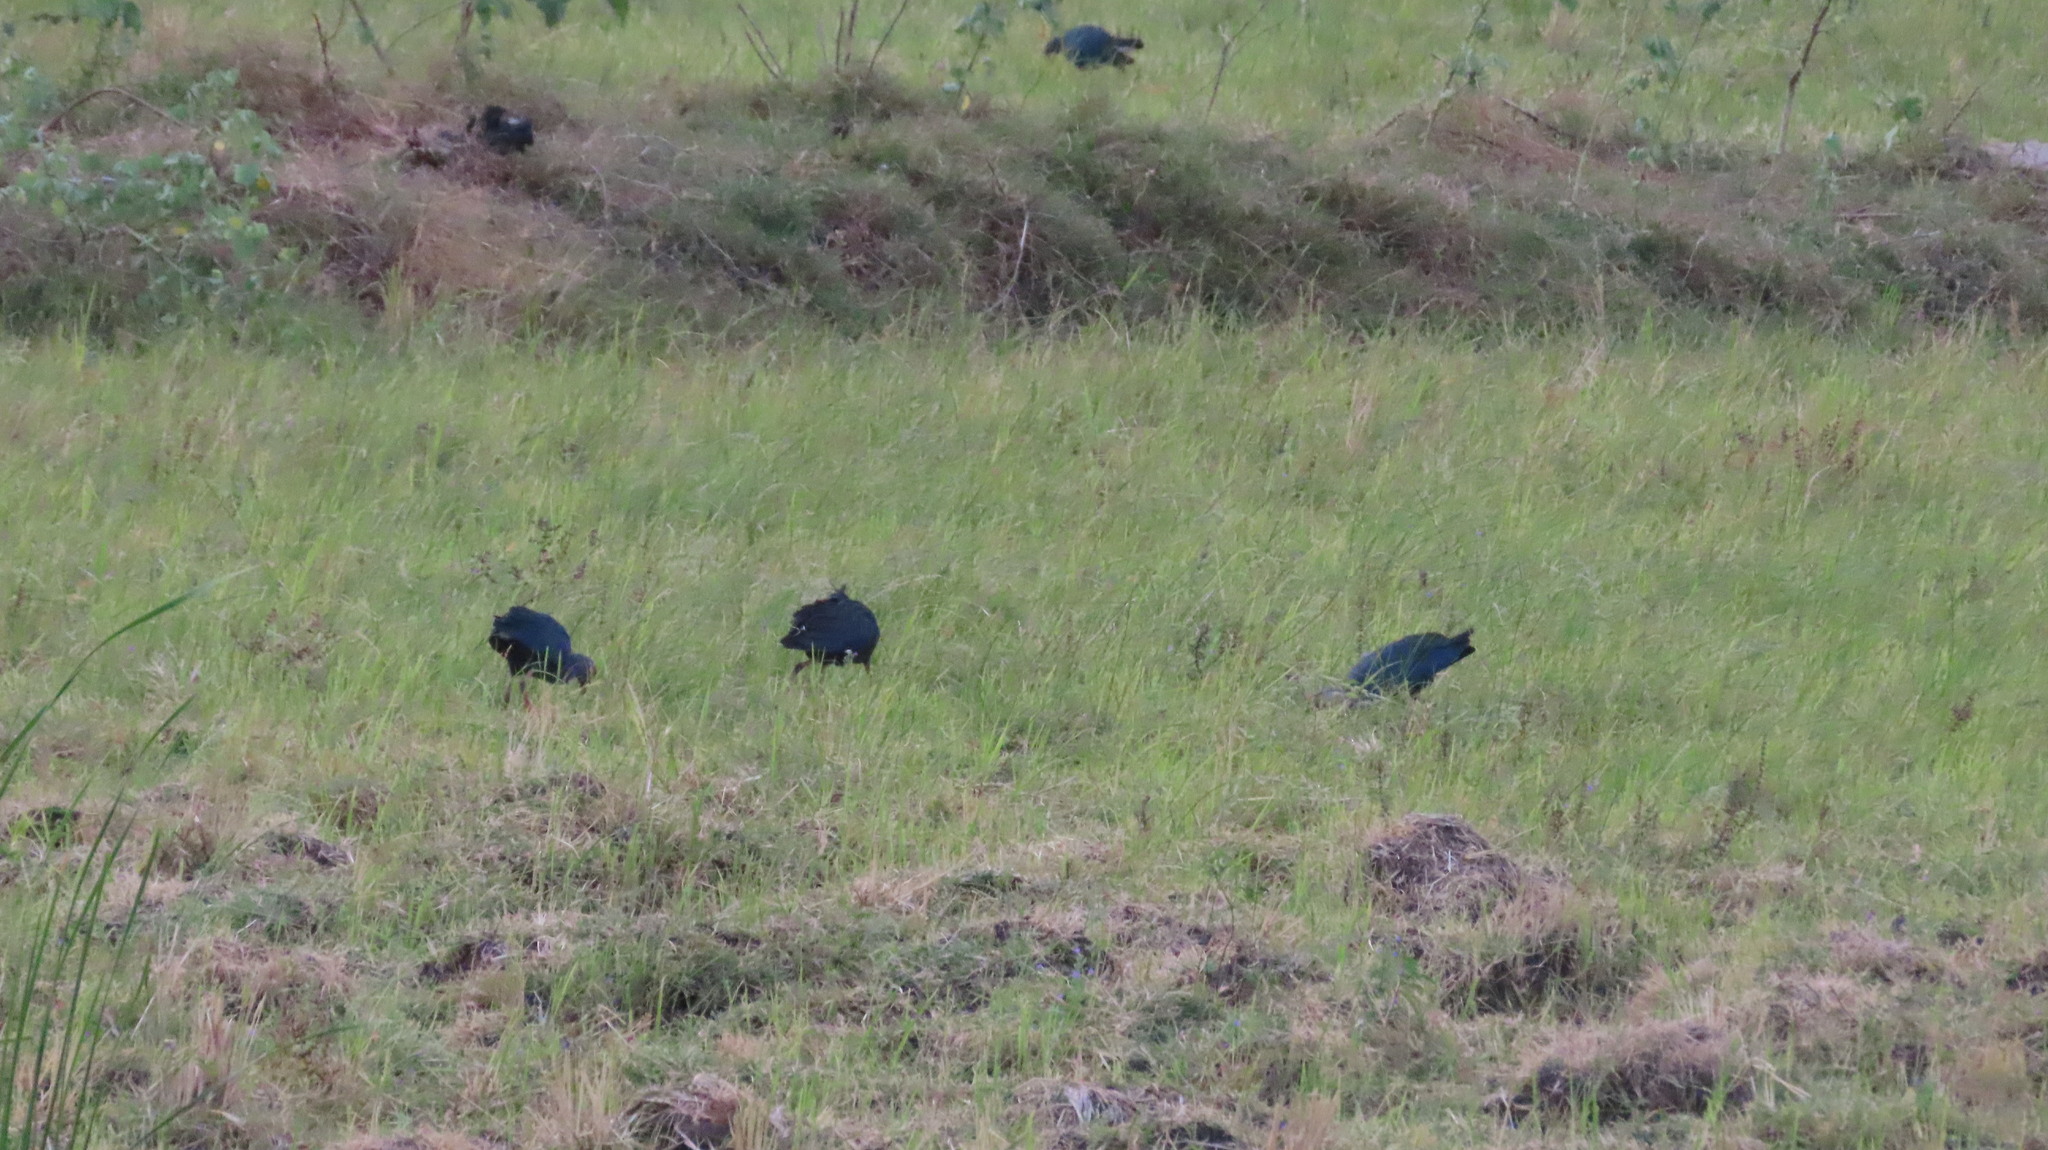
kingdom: Animalia
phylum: Chordata
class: Aves
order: Gruiformes
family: Rallidae
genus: Porphyrio
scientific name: Porphyrio porphyrio
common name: Purple swamphen
